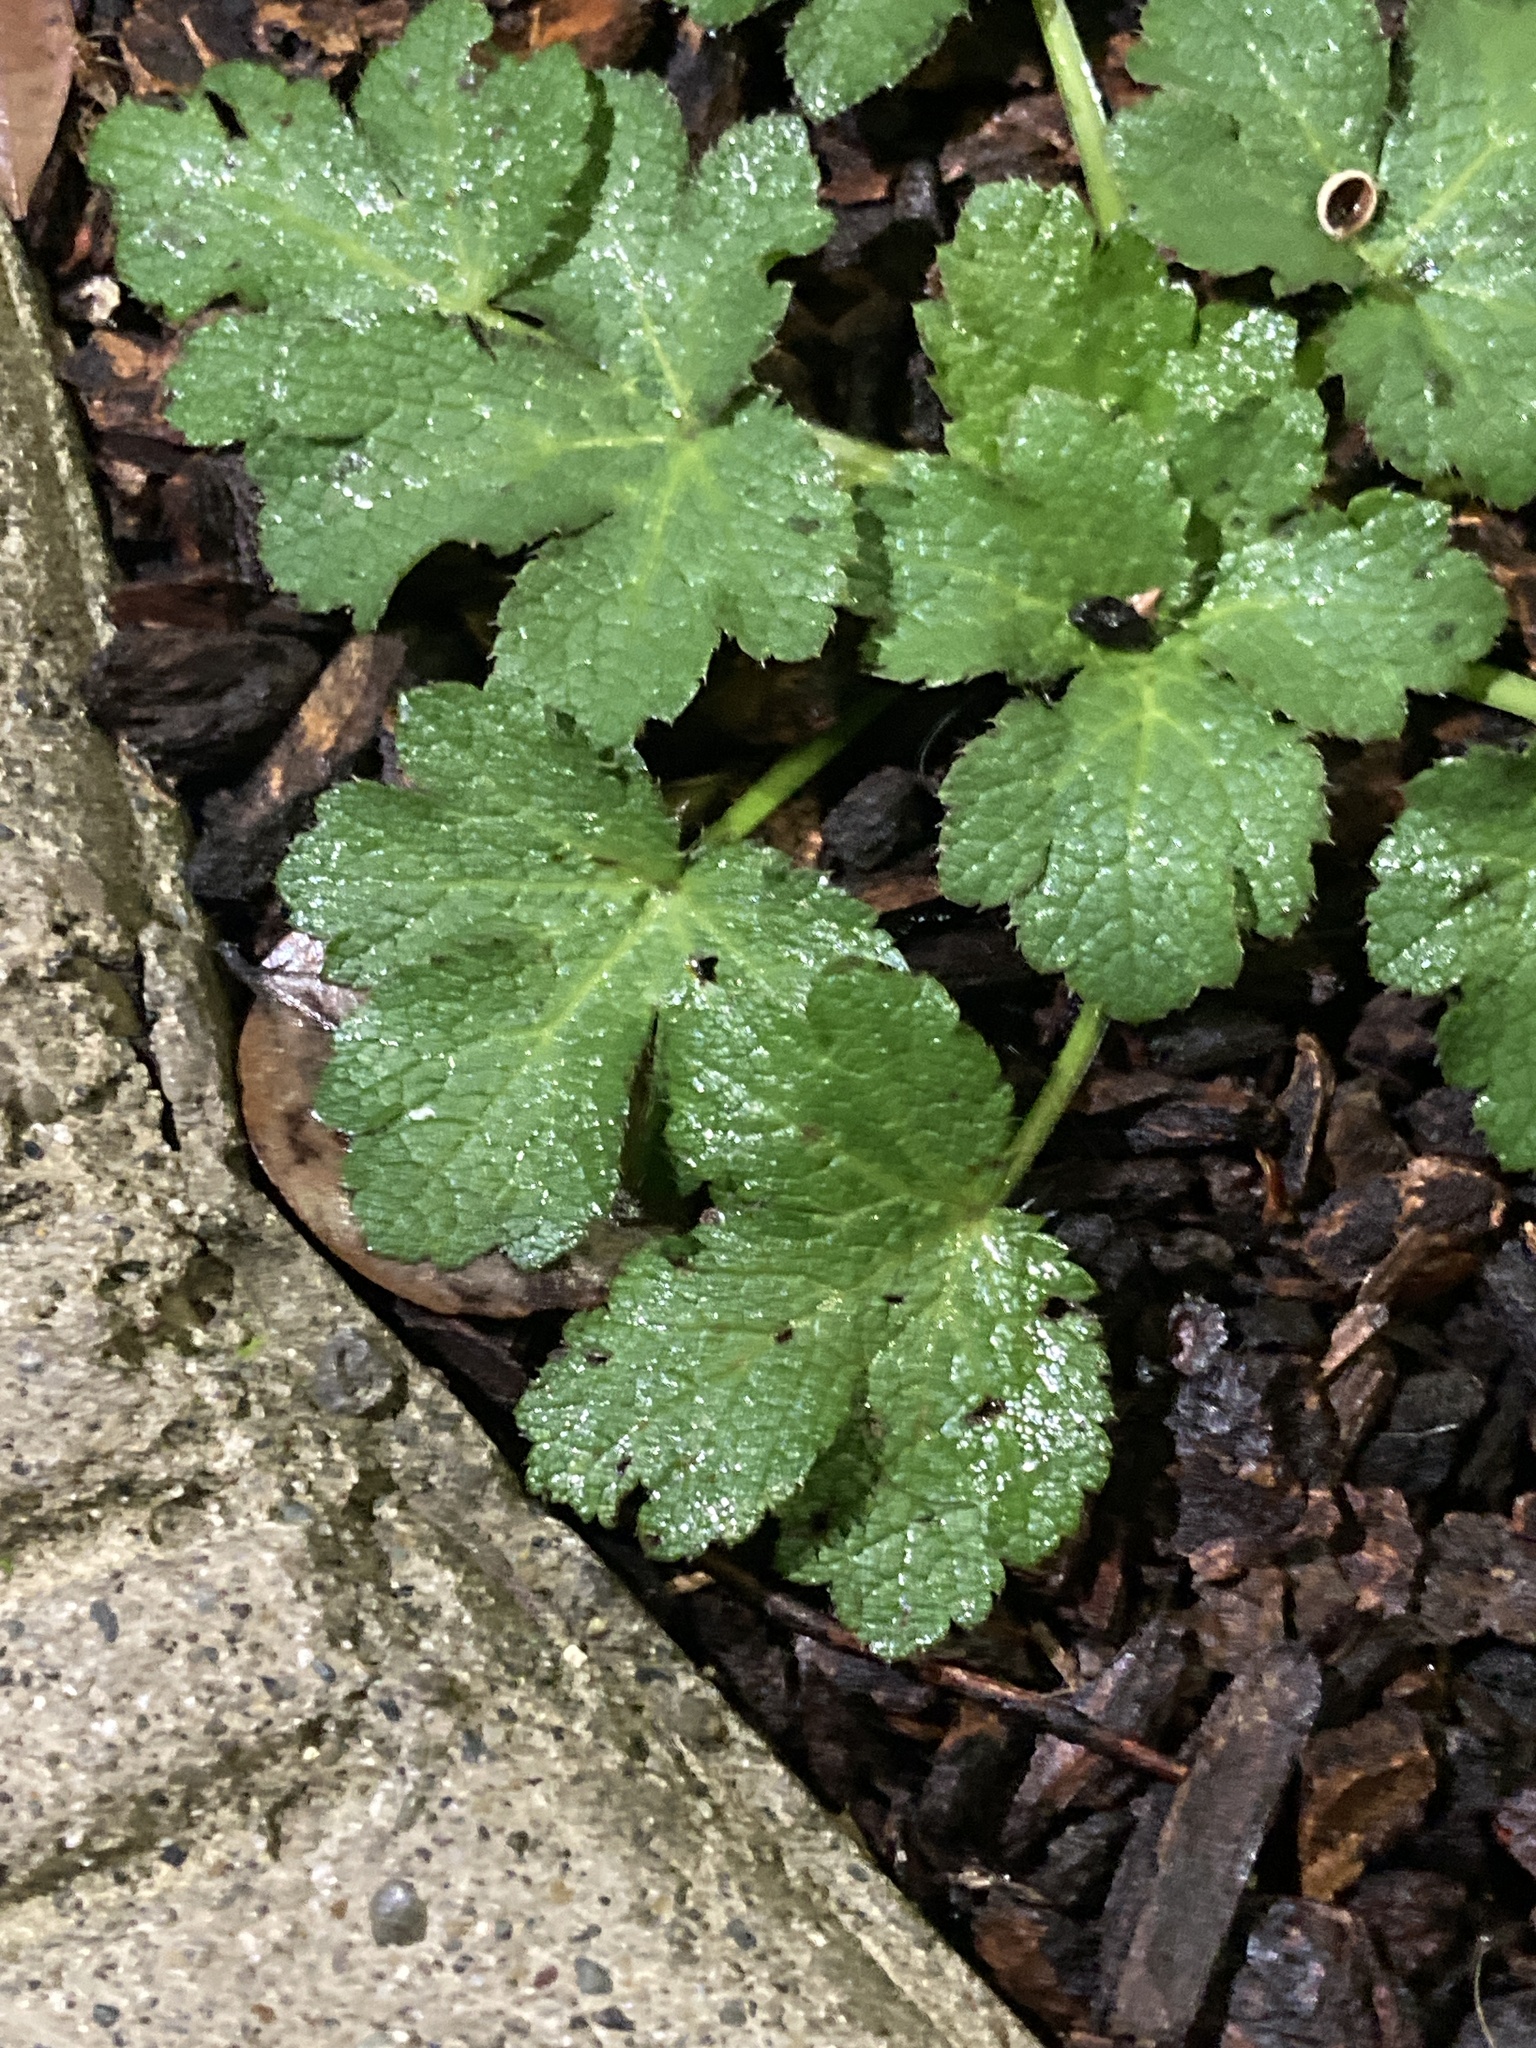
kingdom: Plantae
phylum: Tracheophyta
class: Magnoliopsida
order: Apiales
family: Apiaceae
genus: Sanicula
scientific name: Sanicula crassicaulis
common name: Western snakeroot
